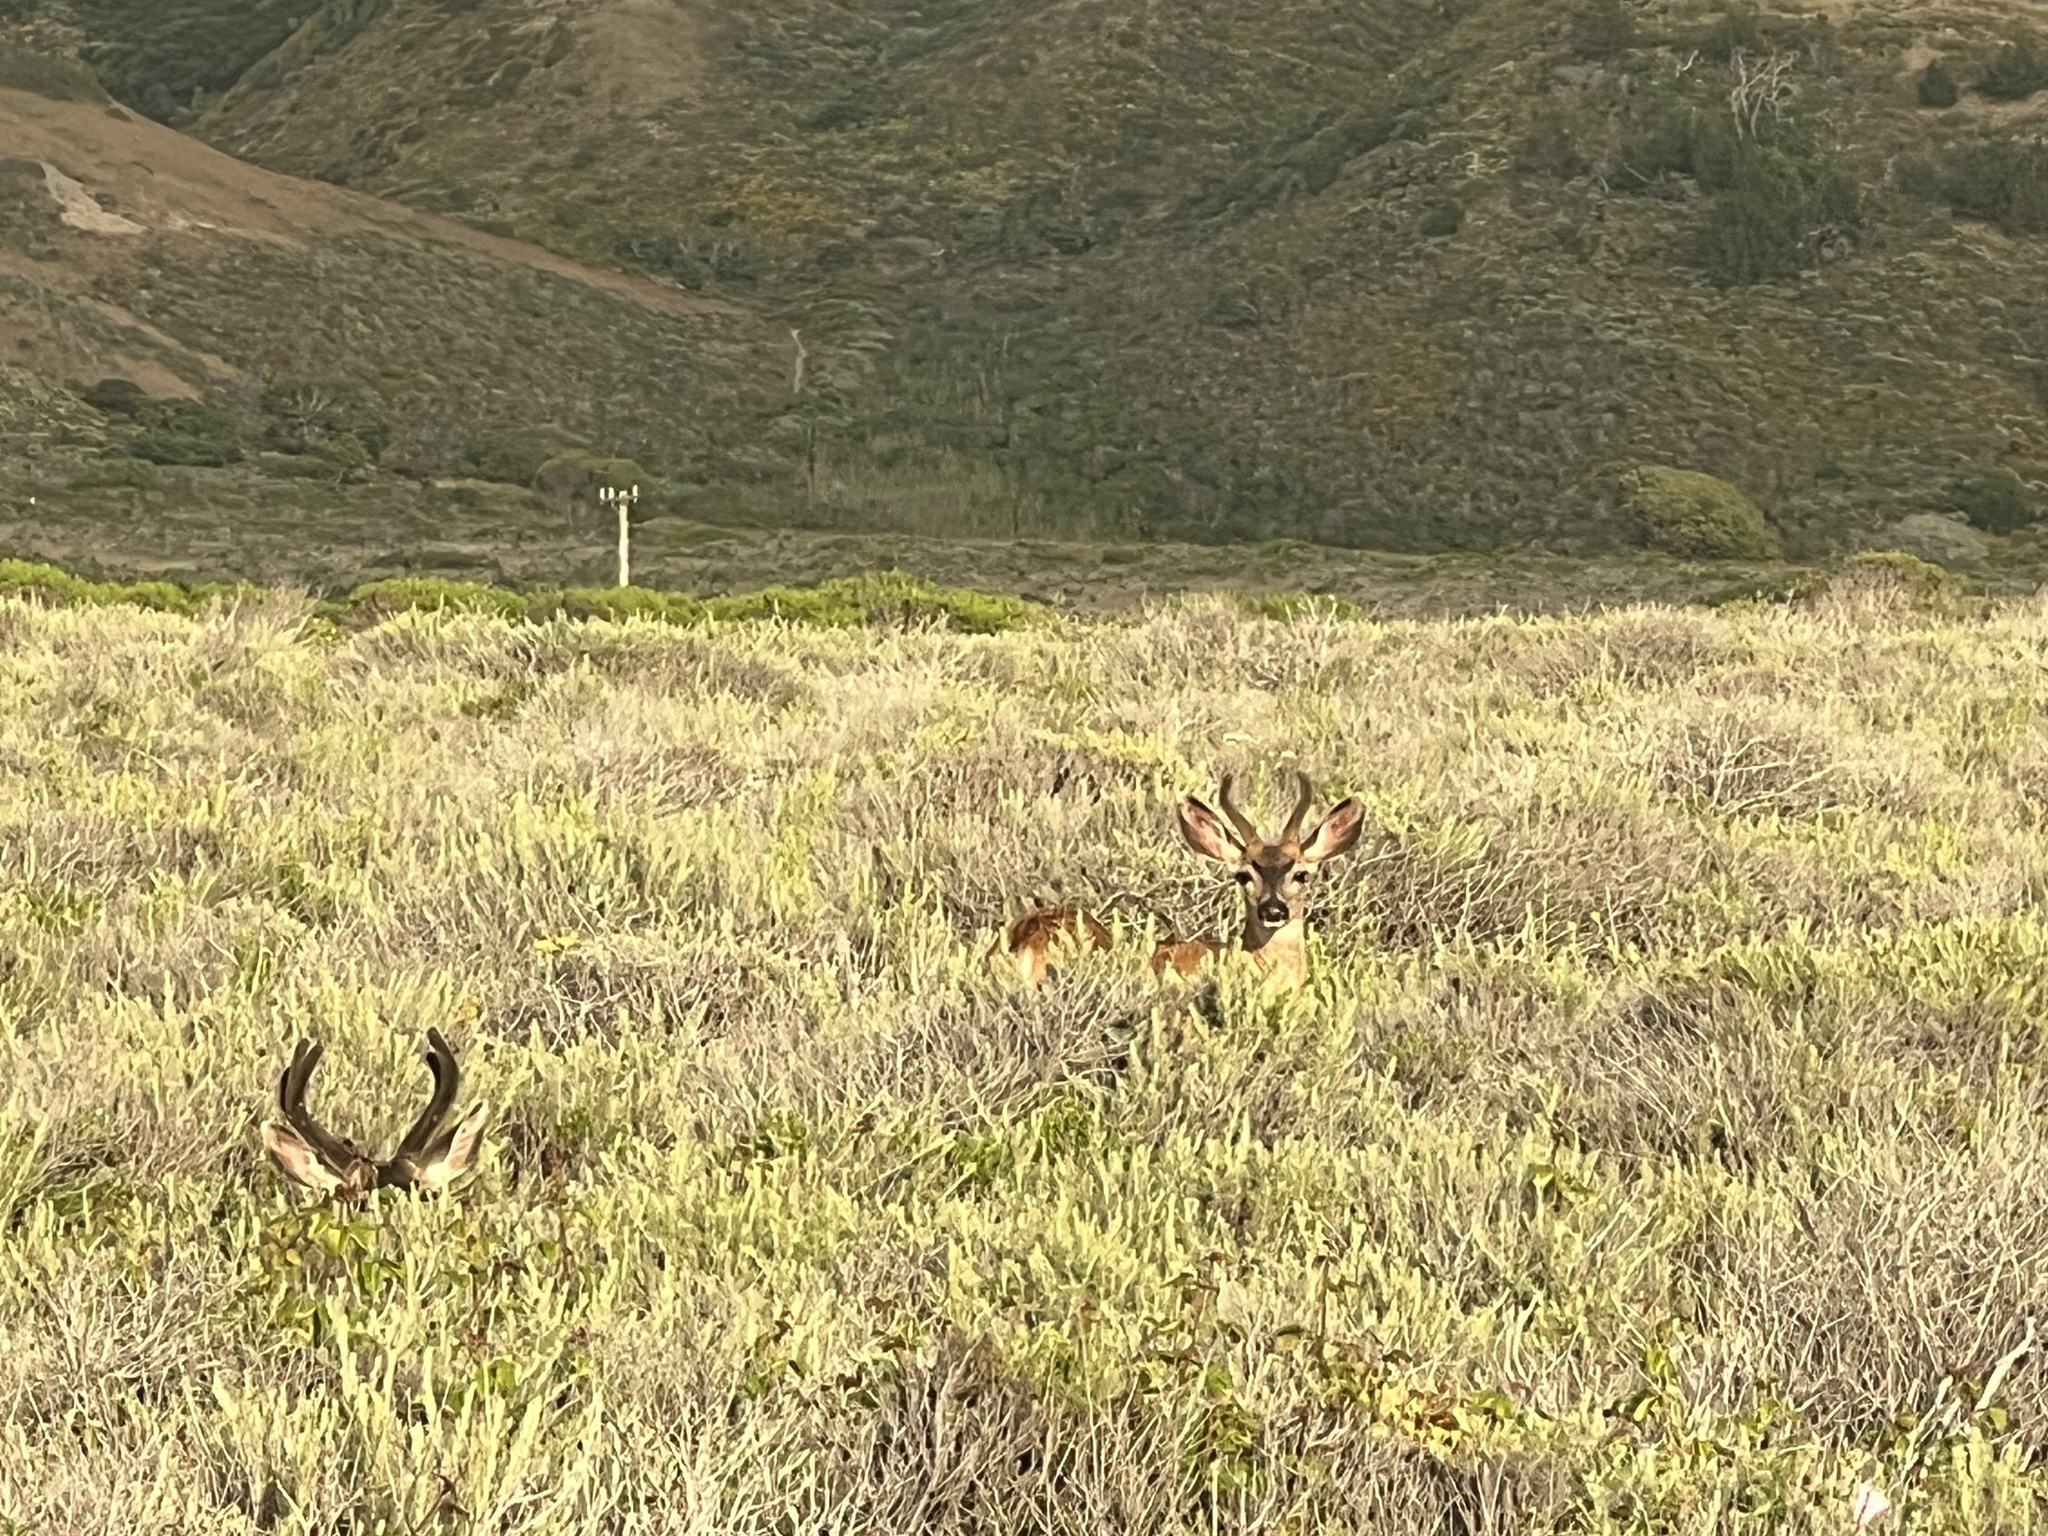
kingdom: Animalia
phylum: Chordata
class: Mammalia
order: Artiodactyla
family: Cervidae
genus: Odocoileus
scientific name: Odocoileus hemionus
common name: Mule deer
